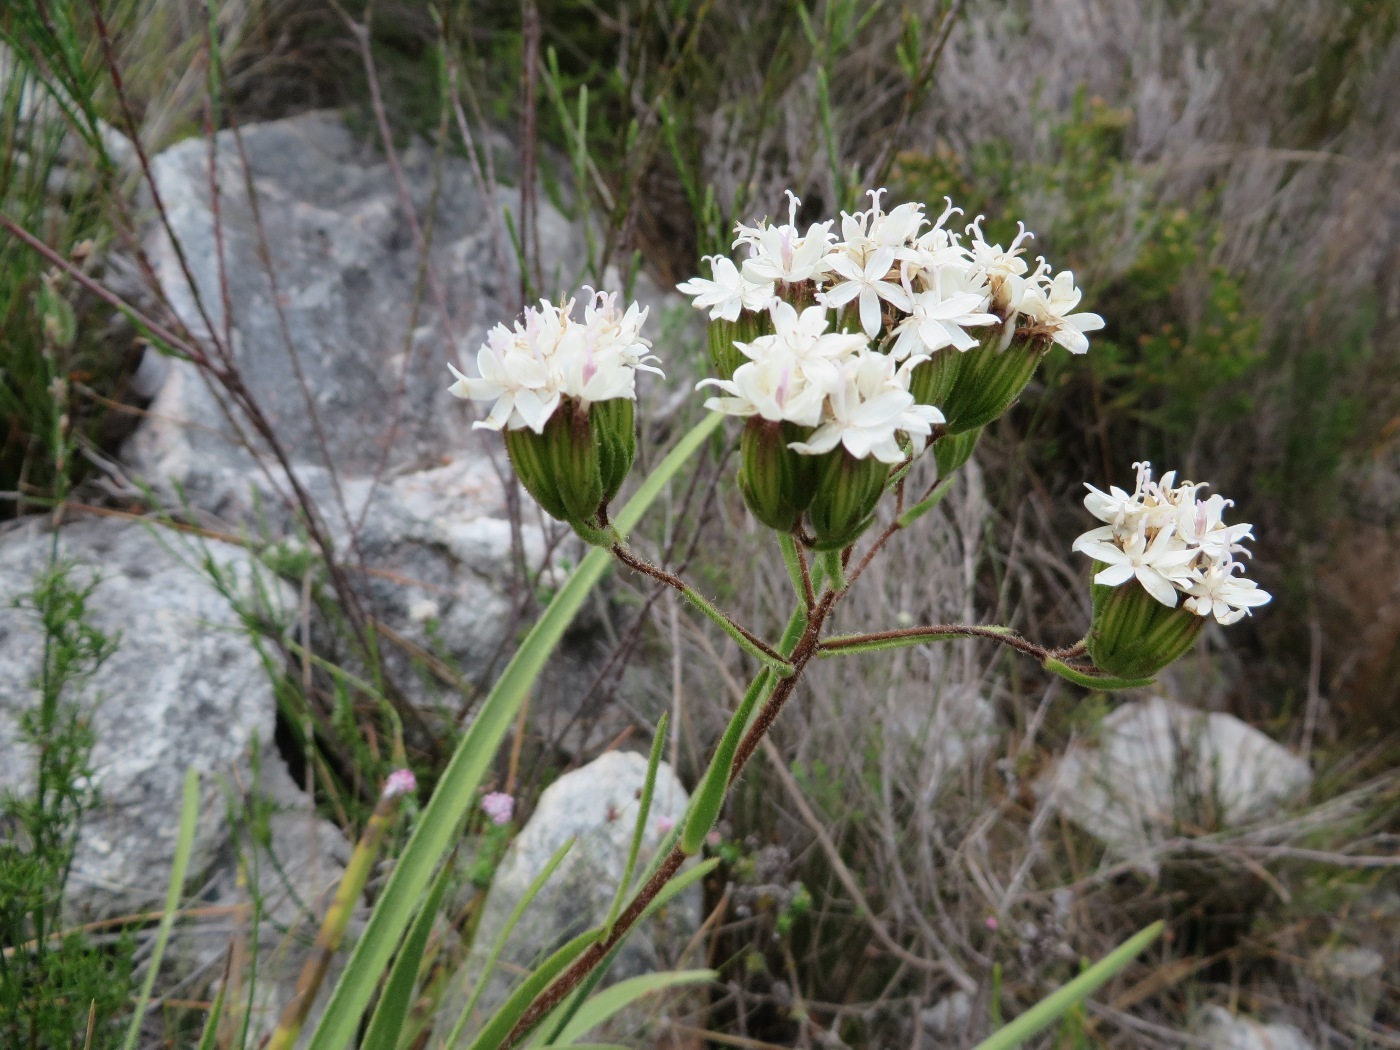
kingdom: Plantae
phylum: Tracheophyta
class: Magnoliopsida
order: Asterales
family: Asteraceae
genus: Corymbium
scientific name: Corymbium villosum
